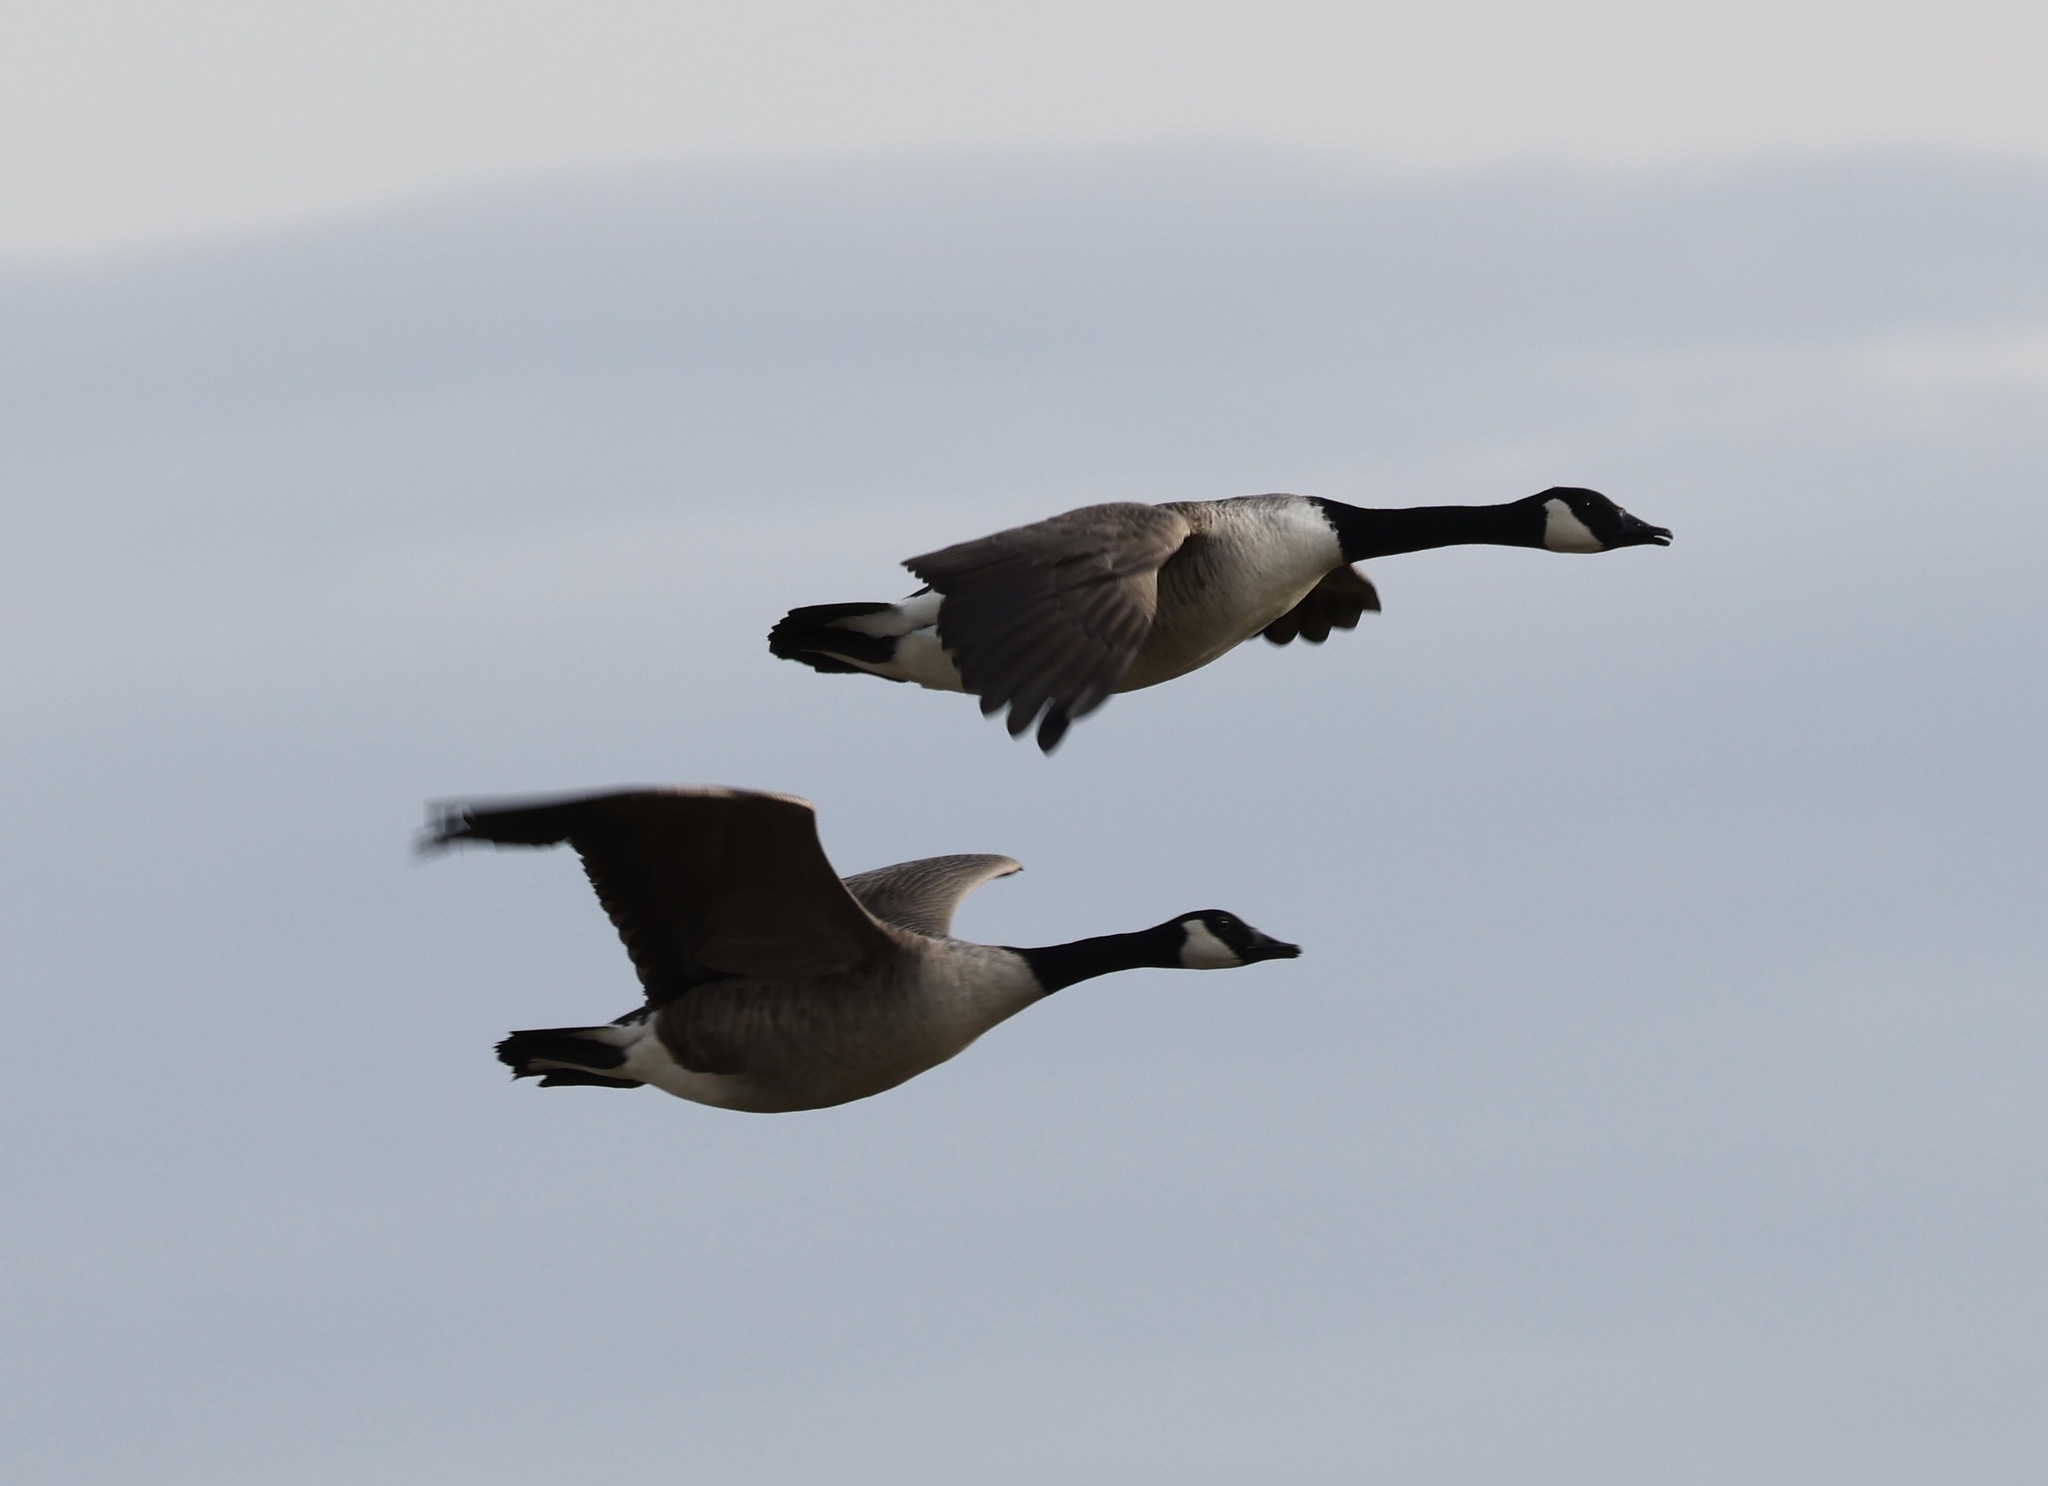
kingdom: Animalia
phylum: Chordata
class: Aves
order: Anseriformes
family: Anatidae
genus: Branta
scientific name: Branta canadensis
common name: Canada goose
